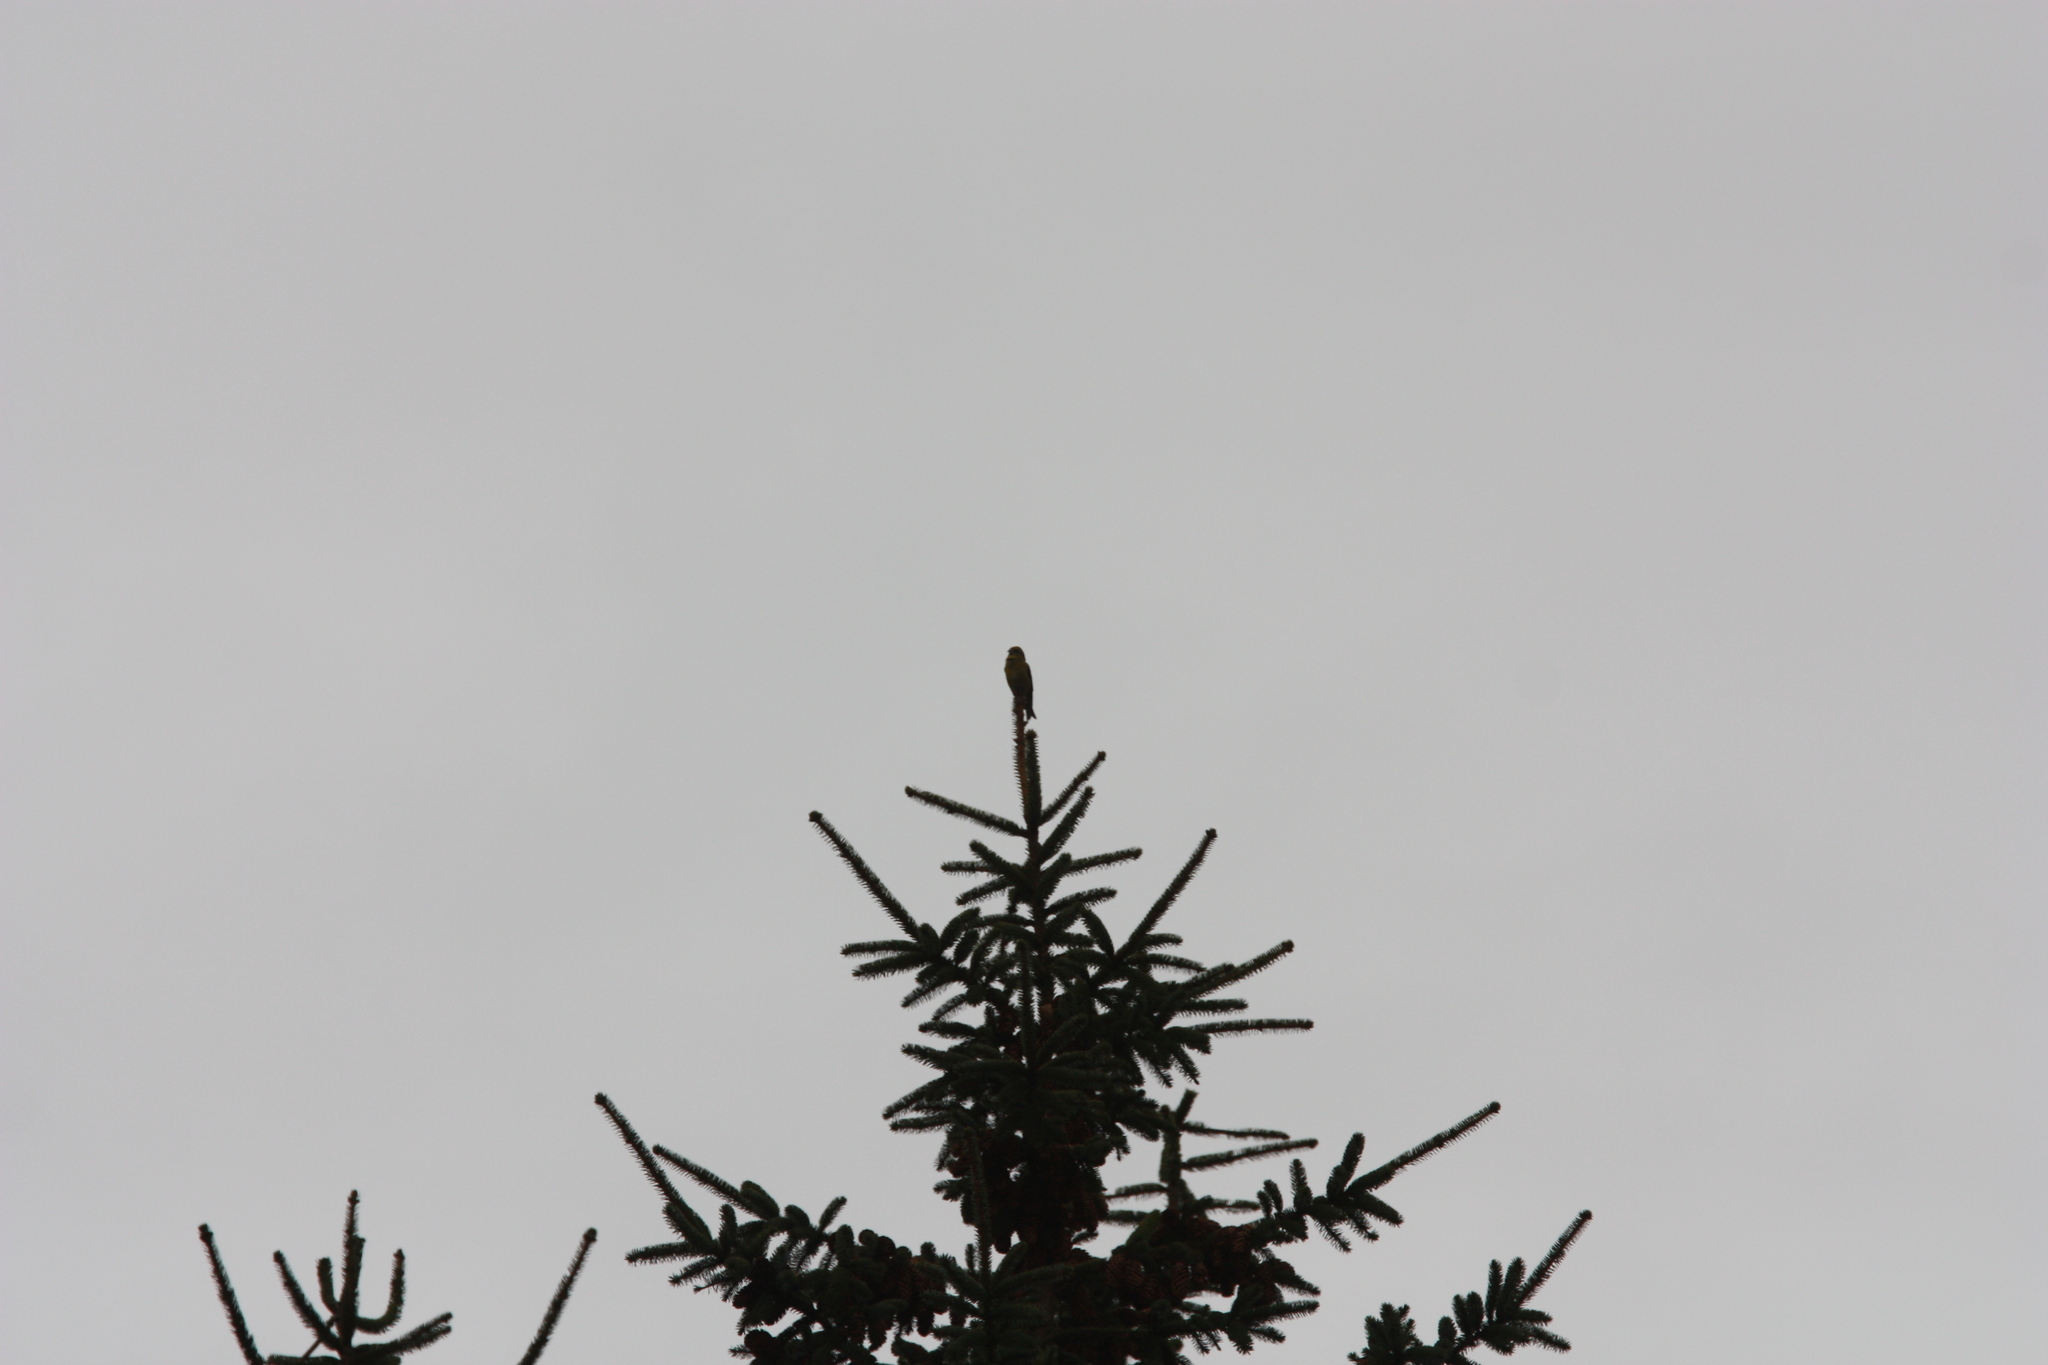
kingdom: Animalia
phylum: Chordata
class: Aves
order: Passeriformes
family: Fringillidae
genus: Loxia
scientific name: Loxia curvirostra
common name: Red crossbill
